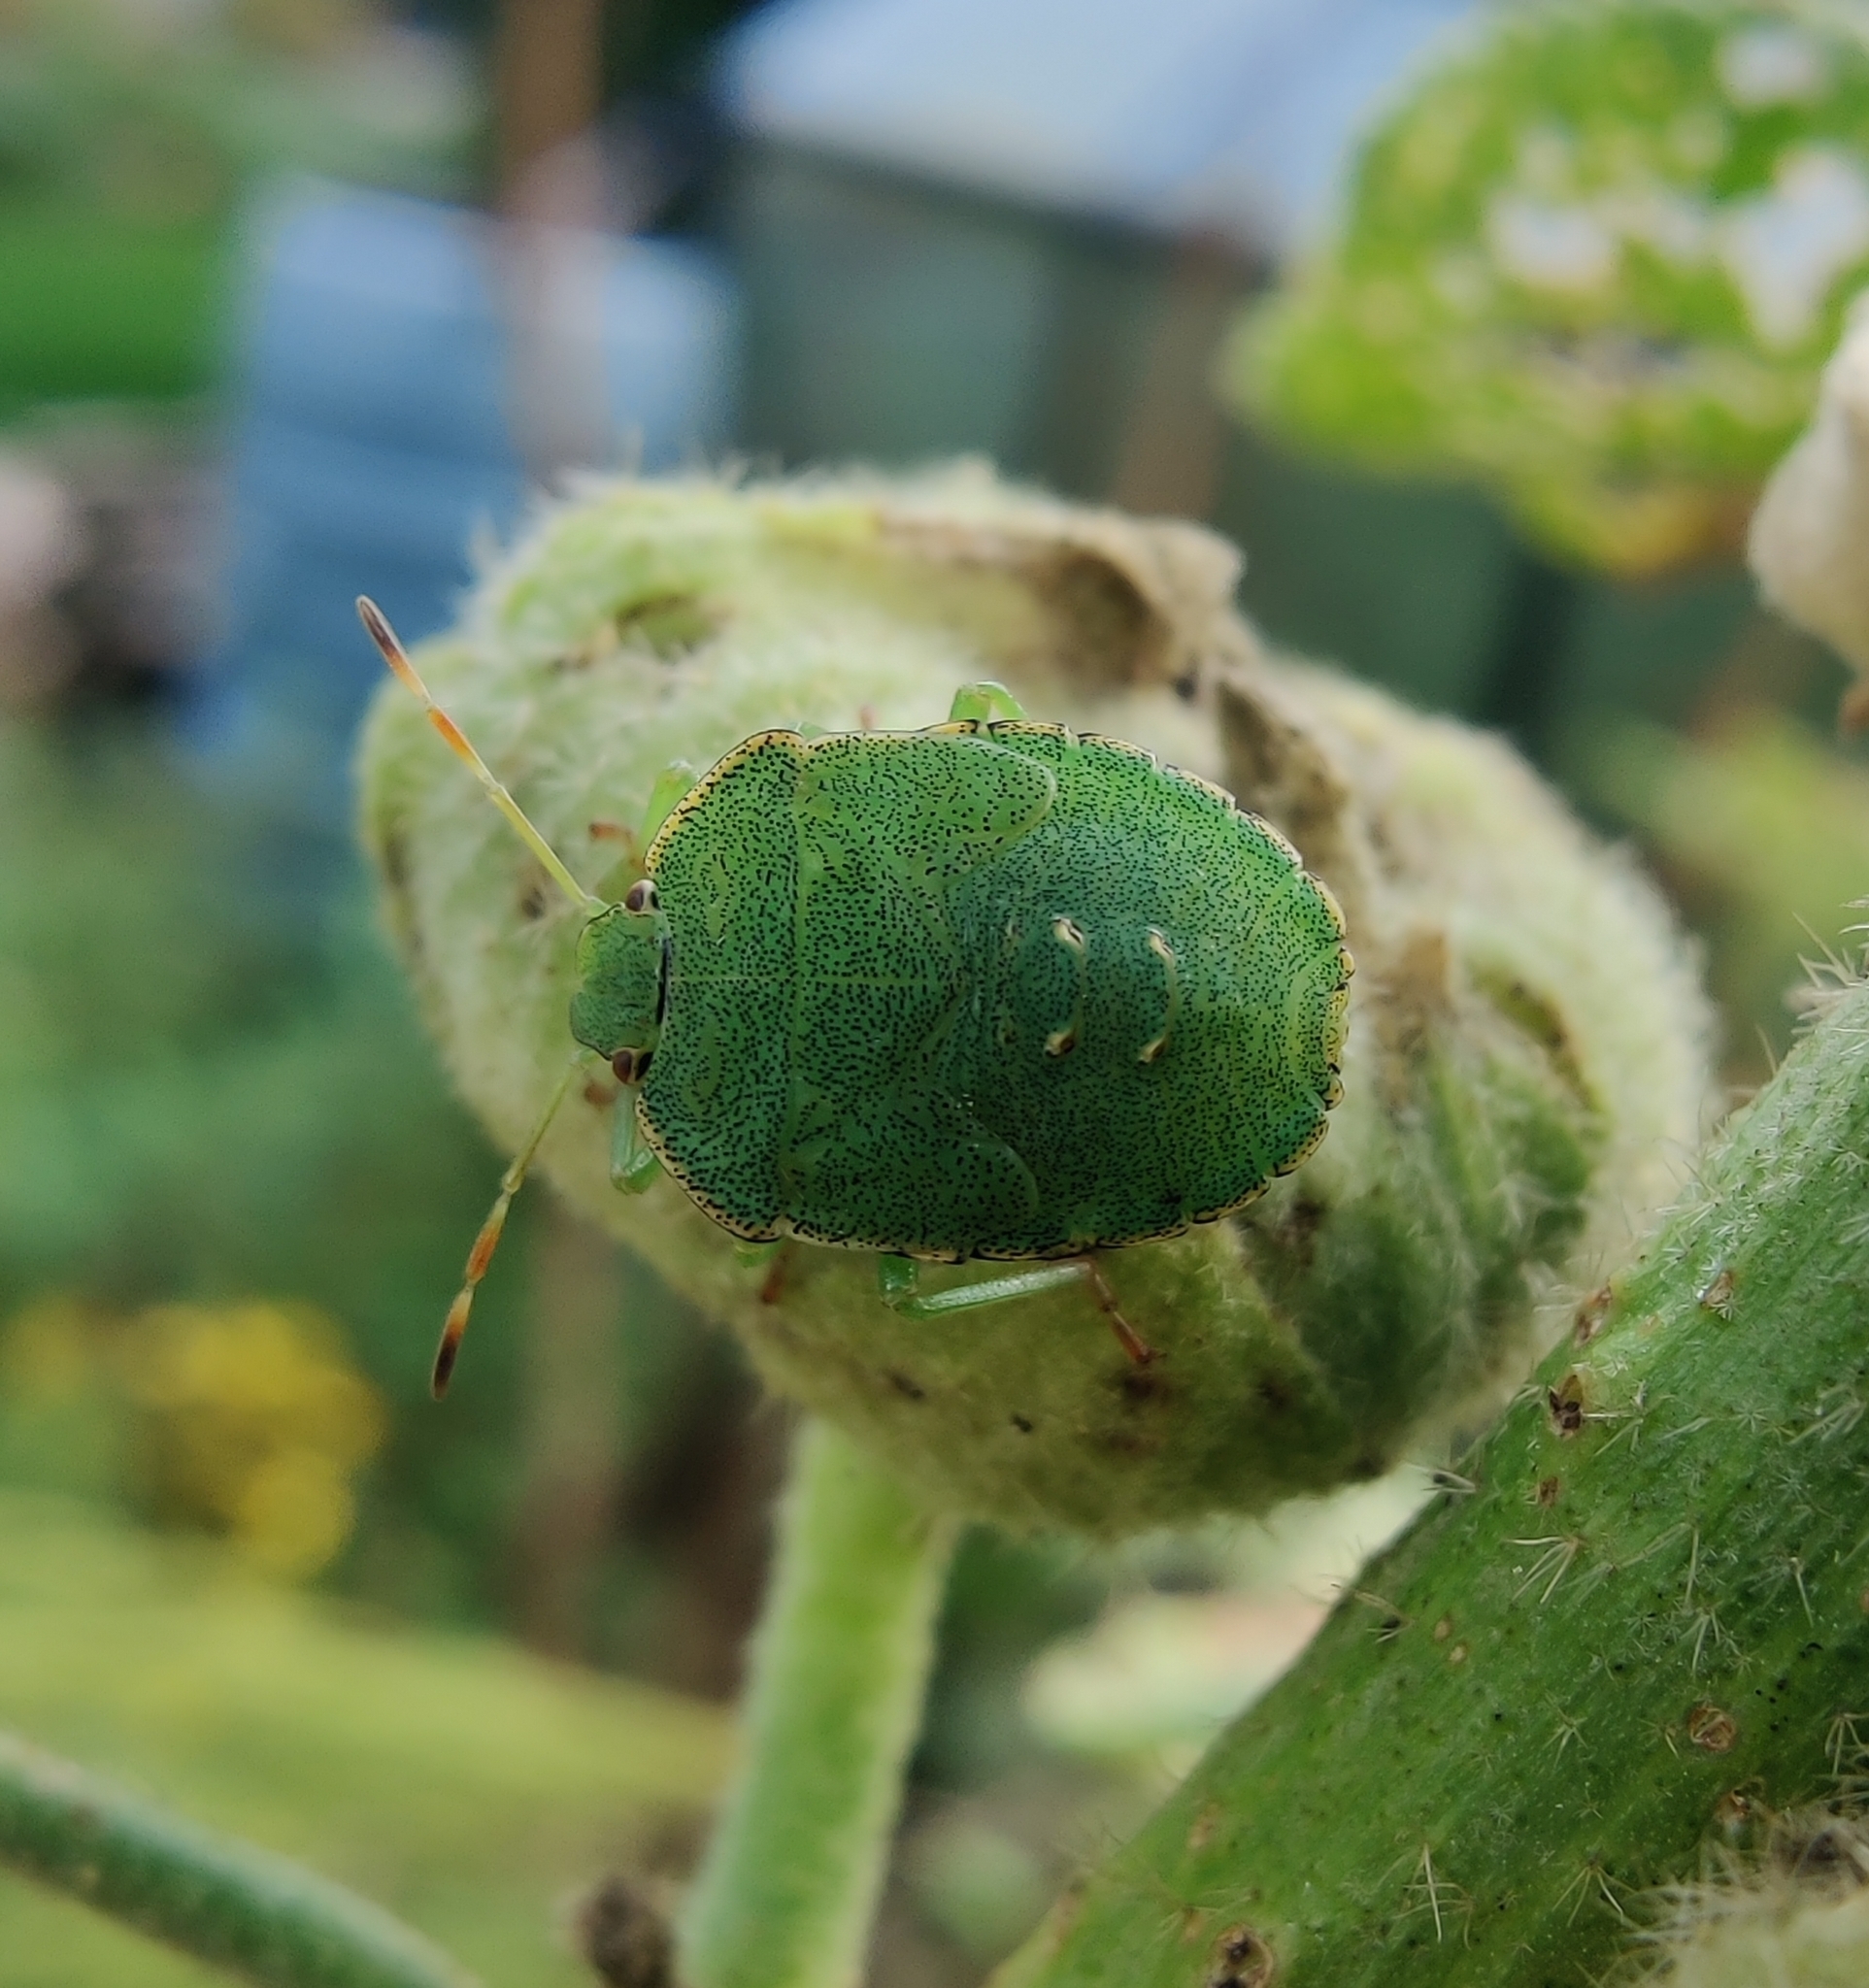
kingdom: Animalia
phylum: Arthropoda
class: Insecta
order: Hemiptera
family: Pentatomidae
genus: Palomena
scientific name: Palomena prasina
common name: Green shieldbug
